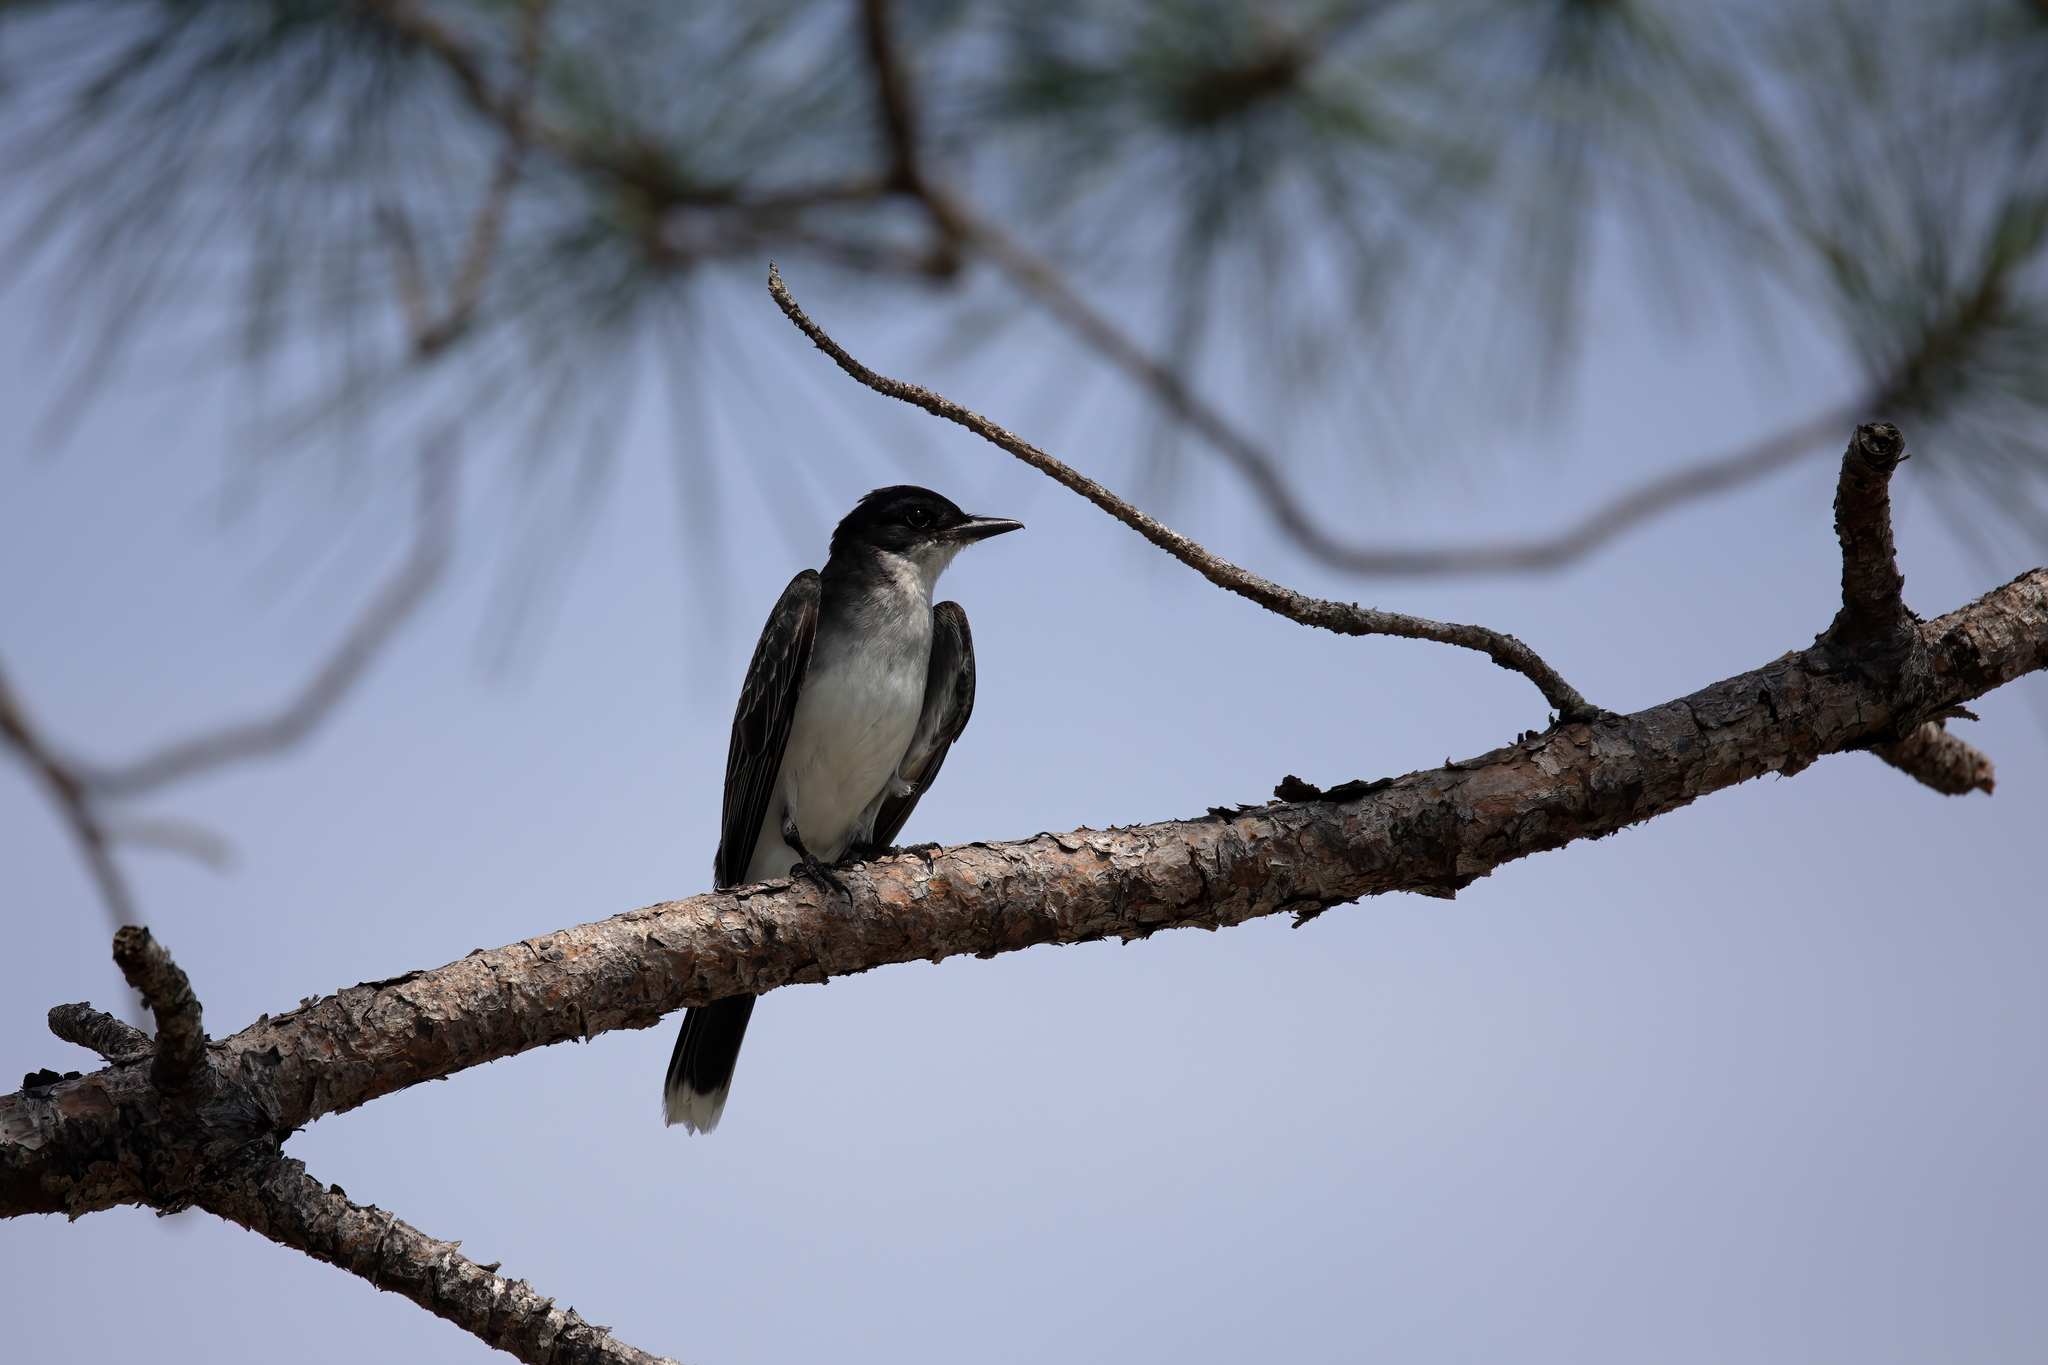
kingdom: Animalia
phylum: Chordata
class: Aves
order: Passeriformes
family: Tyrannidae
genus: Tyrannus
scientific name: Tyrannus tyrannus
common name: Eastern kingbird
